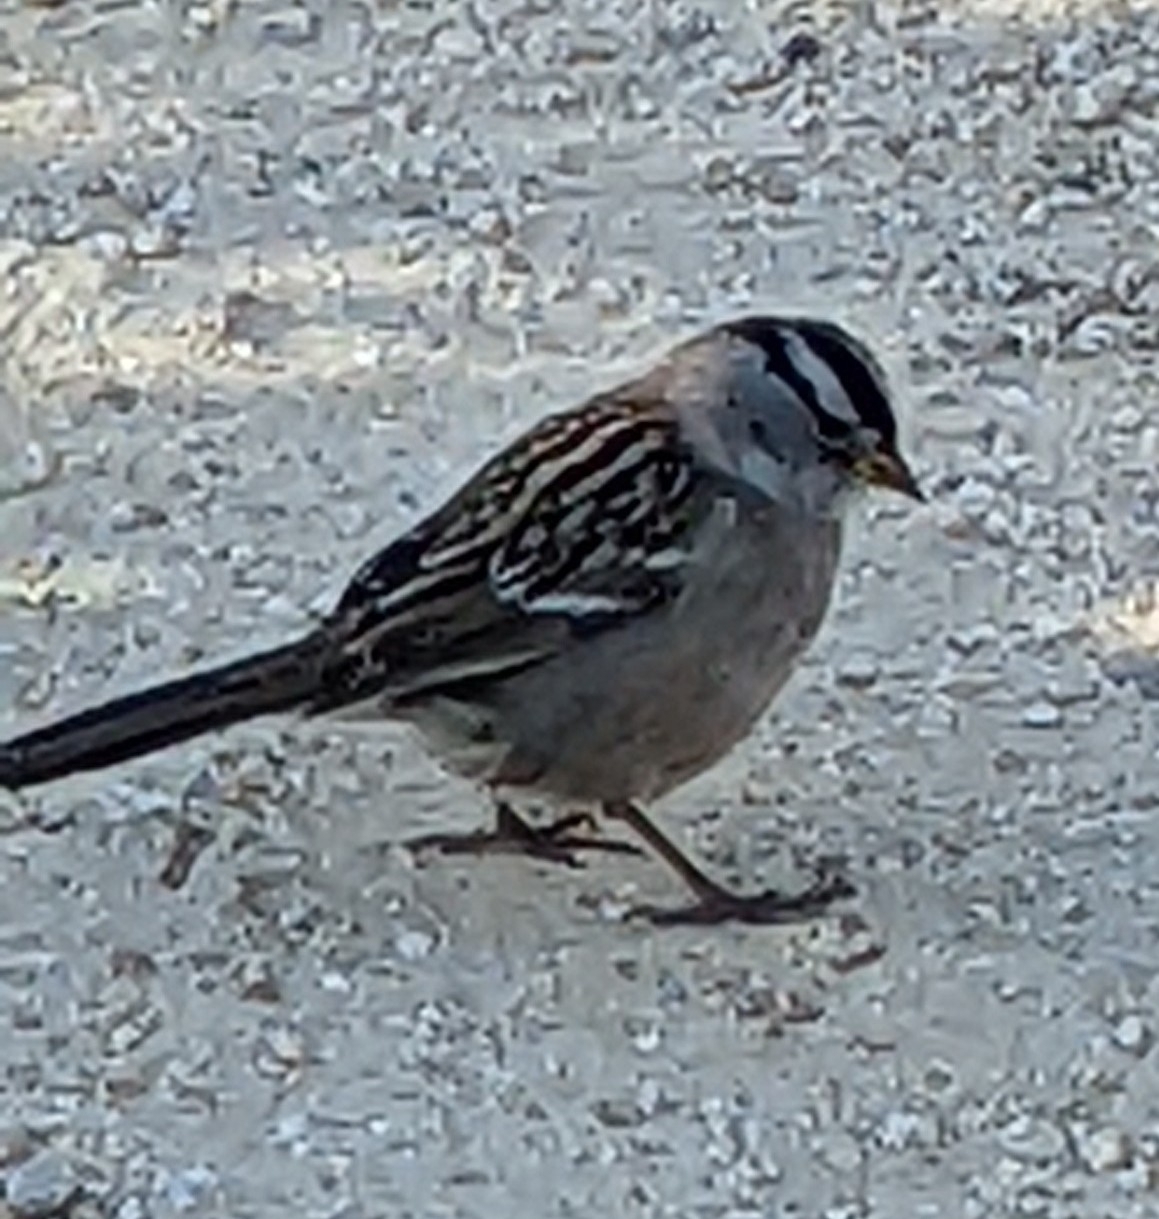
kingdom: Animalia
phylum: Chordata
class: Aves
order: Passeriformes
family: Passerellidae
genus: Zonotrichia
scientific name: Zonotrichia leucophrys
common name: White-crowned sparrow
